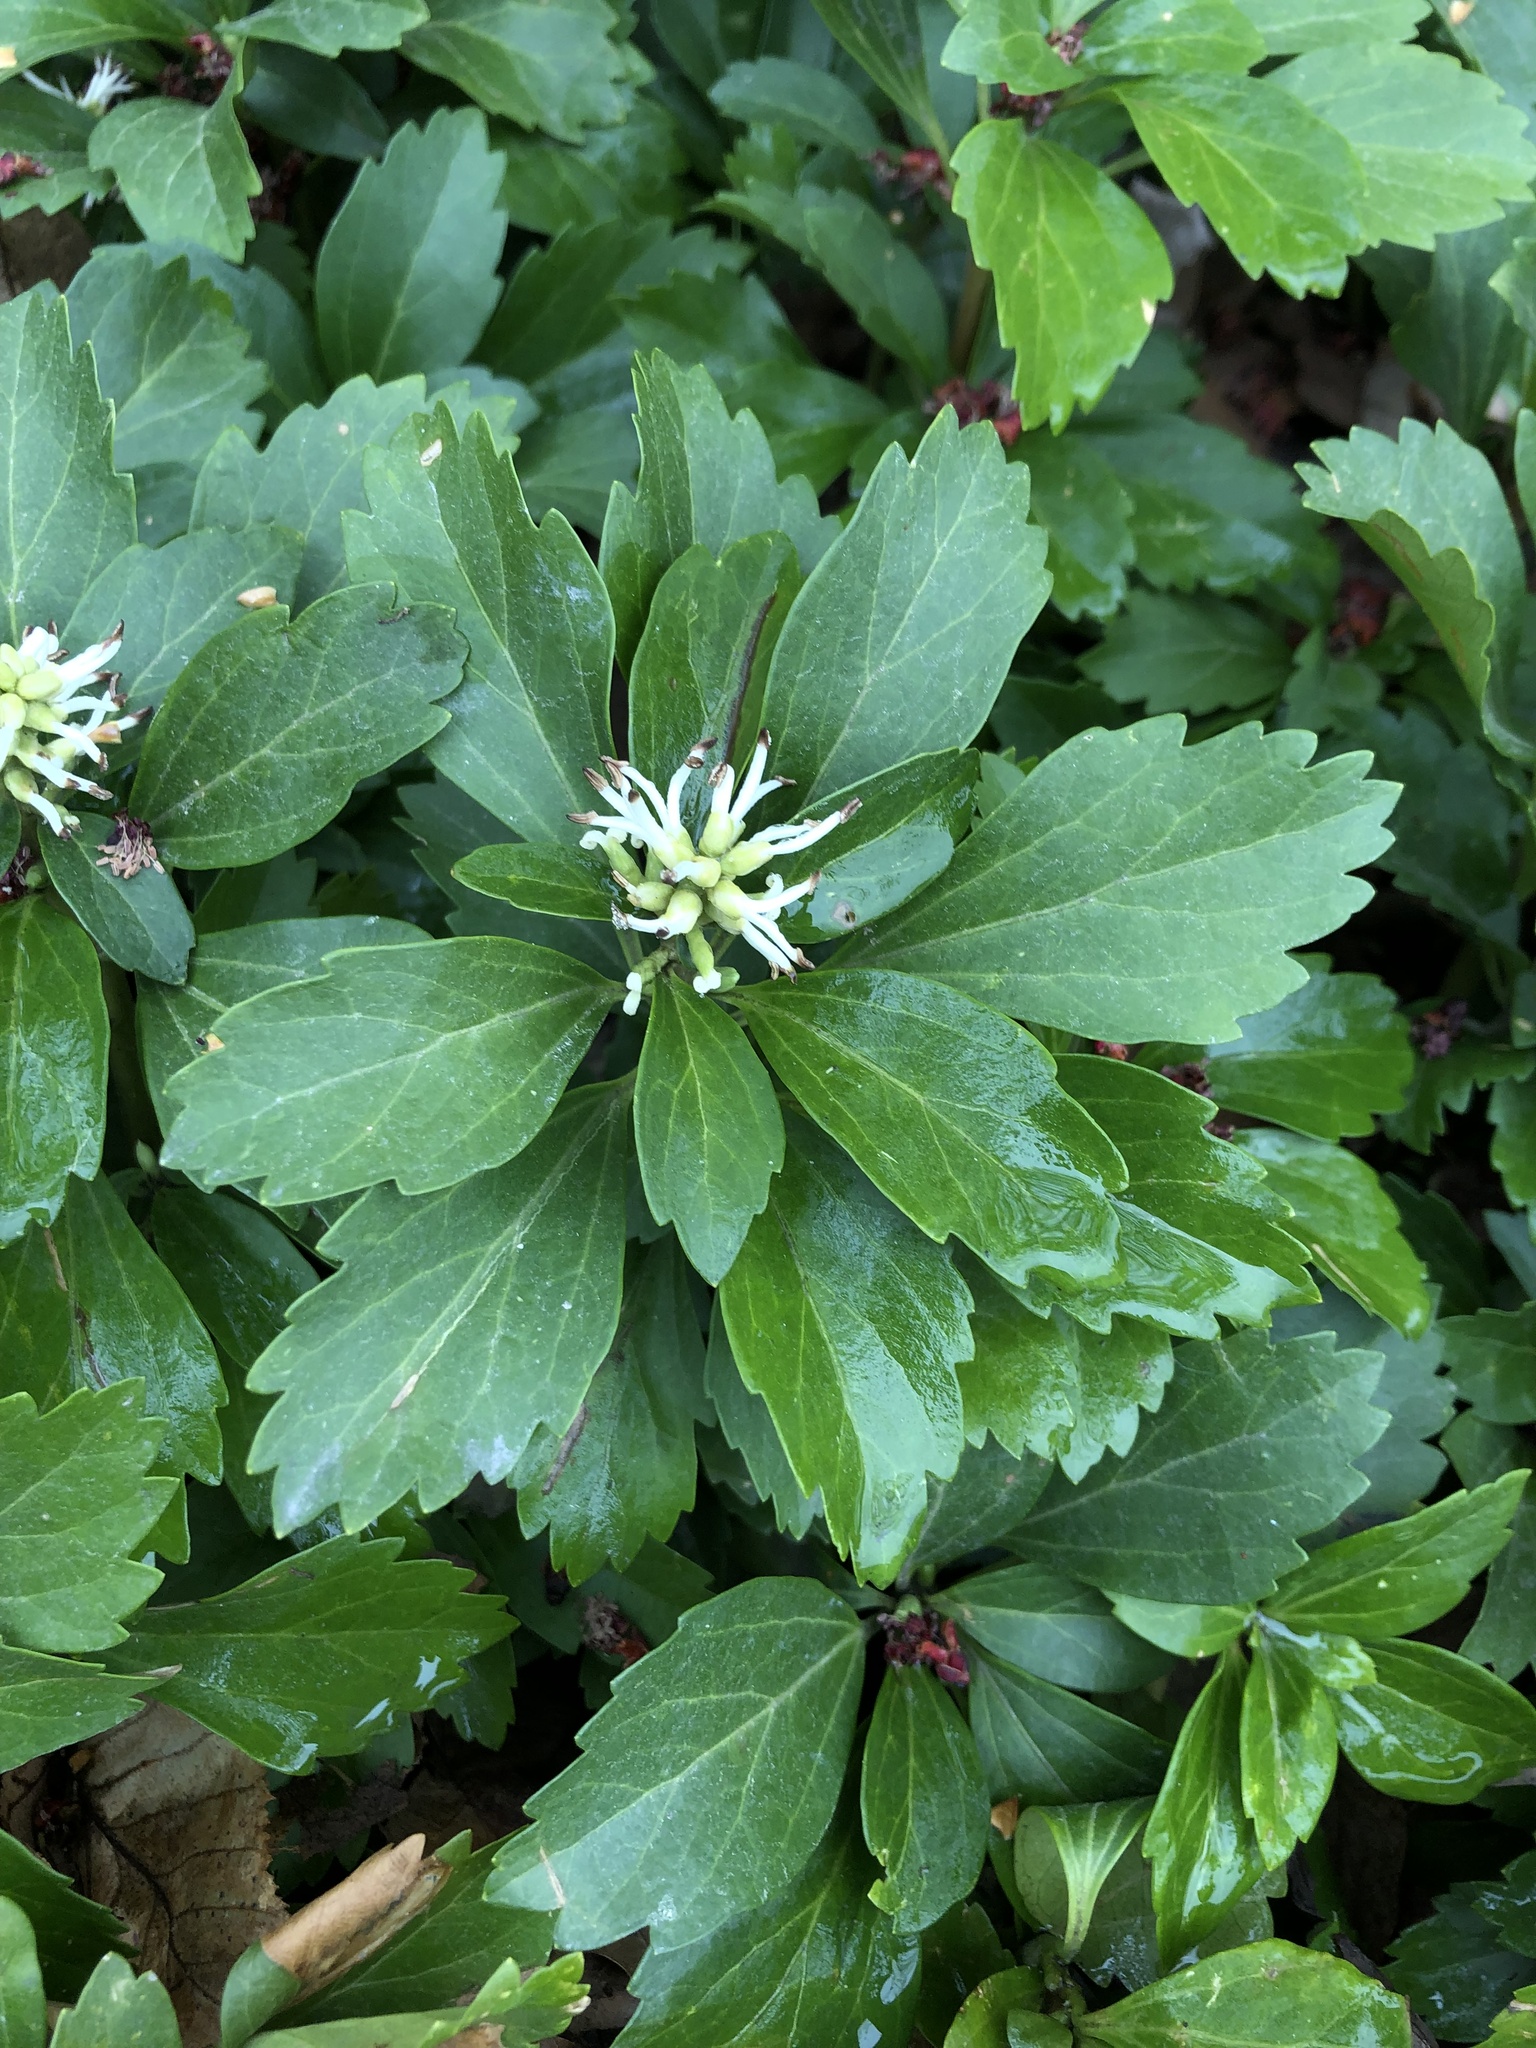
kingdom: Plantae
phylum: Tracheophyta
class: Magnoliopsida
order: Buxales
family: Buxaceae
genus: Pachysandra
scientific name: Pachysandra terminalis
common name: Japanese pachysandra
